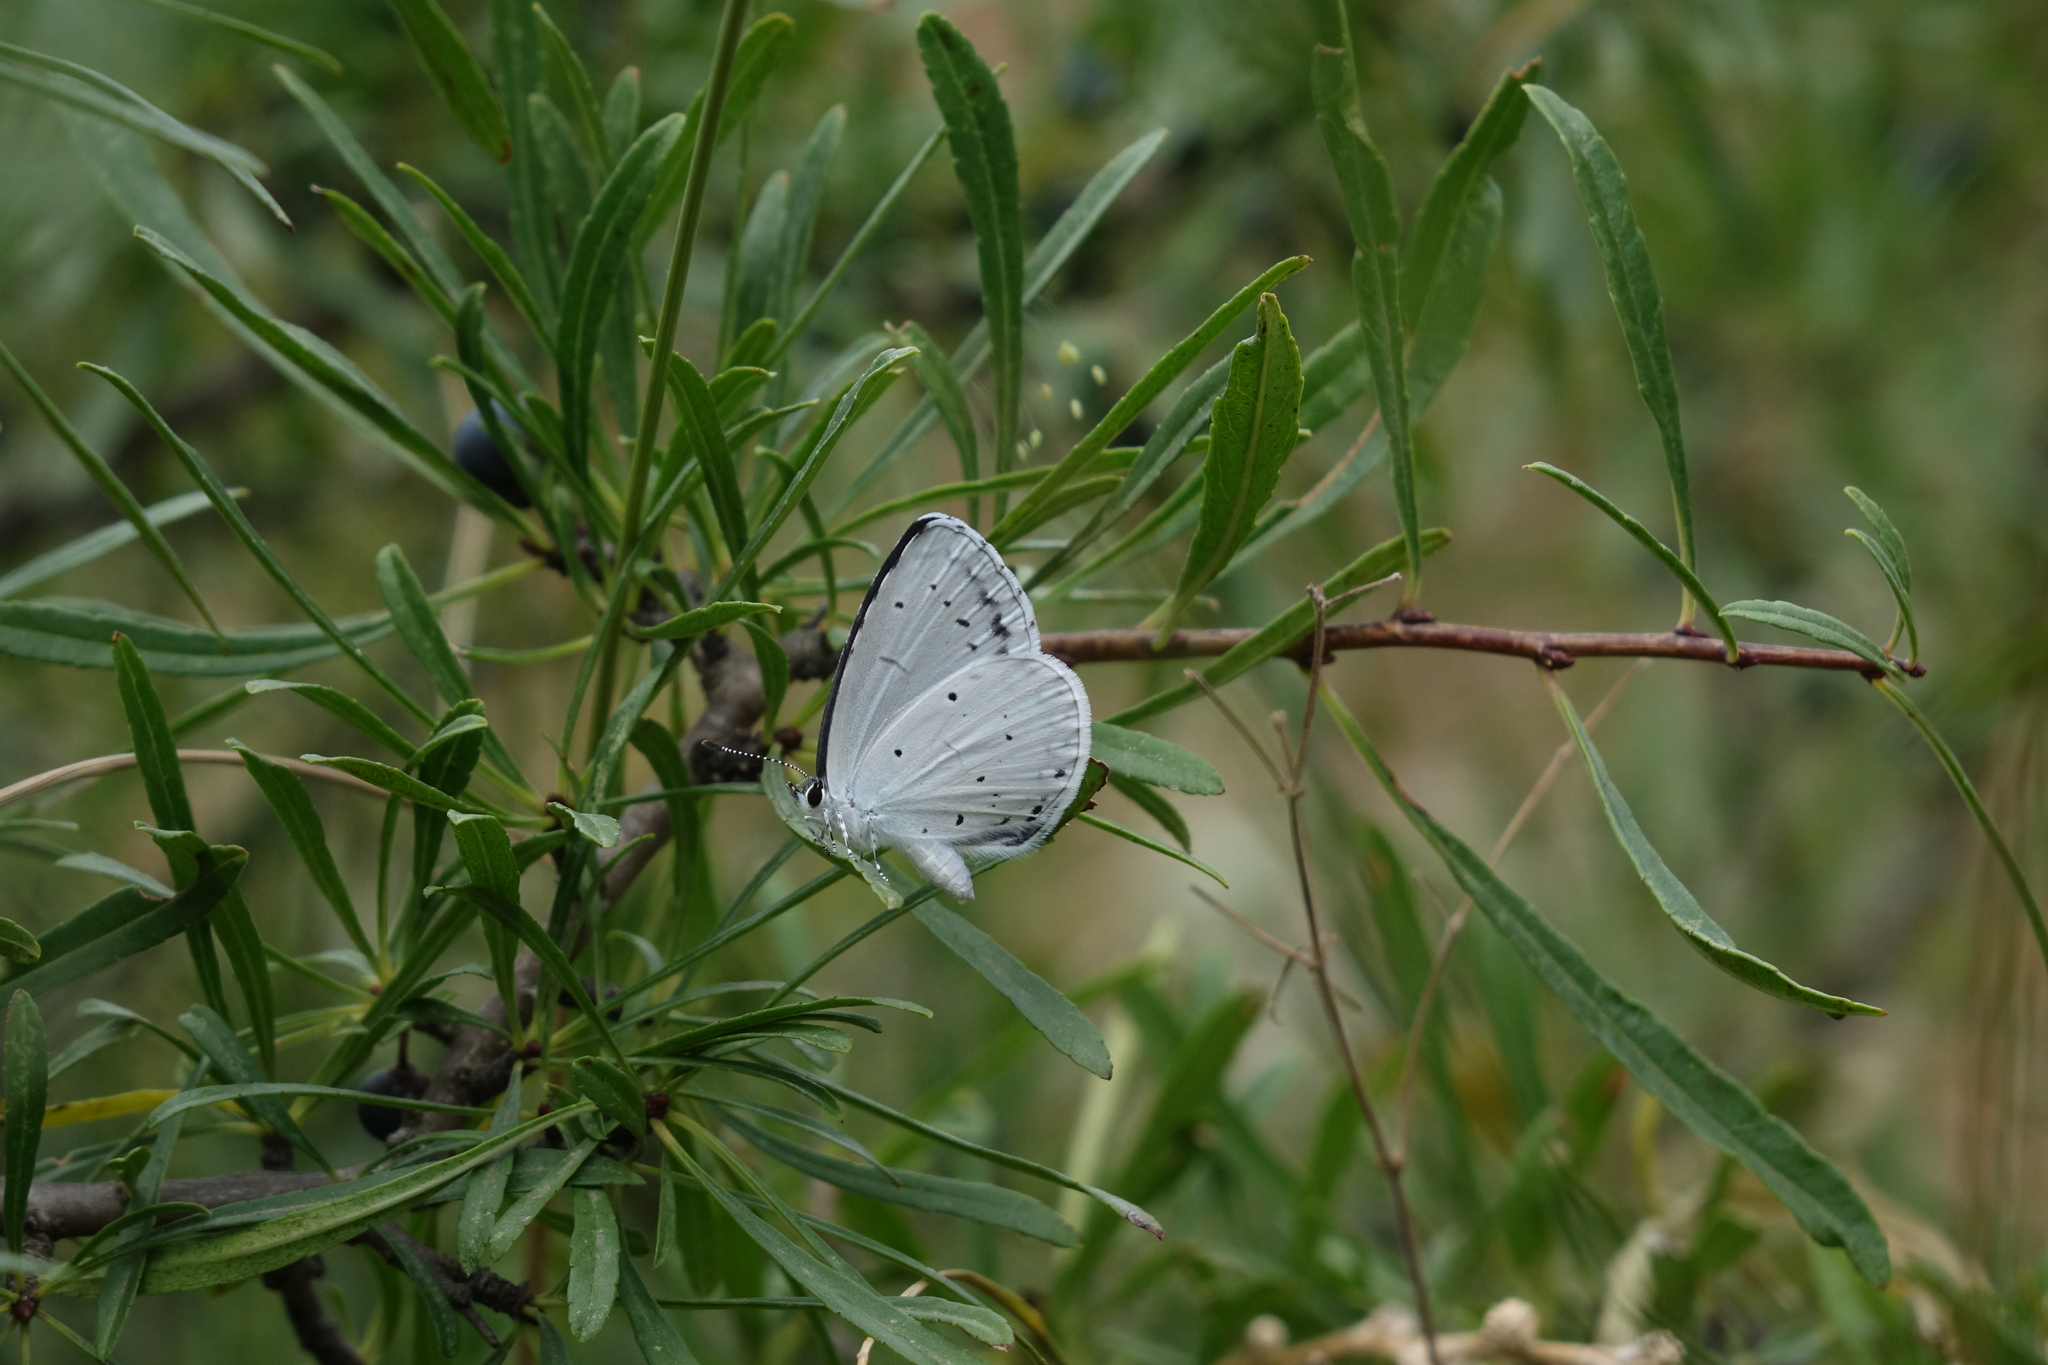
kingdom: Plantae
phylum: Tracheophyta
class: Magnoliopsida
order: Rosales
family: Rhamnaceae
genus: Rhamnus
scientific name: Rhamnus erythroxyloides
